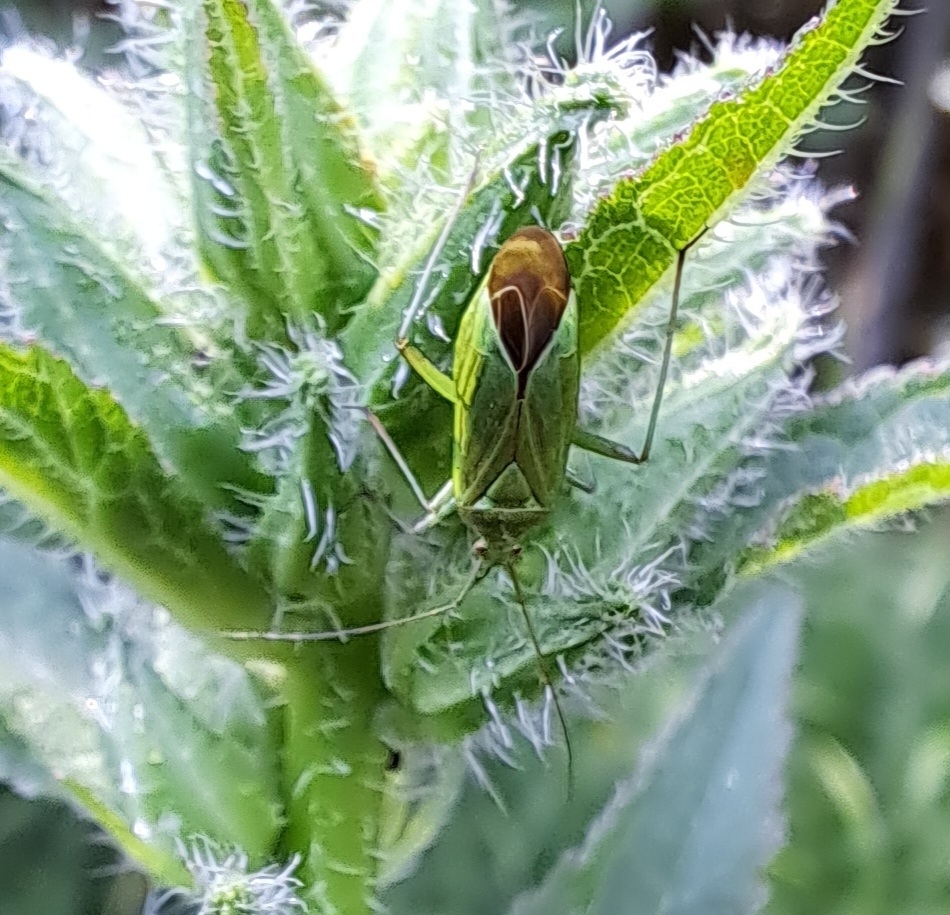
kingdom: Animalia
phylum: Arthropoda
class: Insecta
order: Hemiptera
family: Miridae
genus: Calocoris
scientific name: Calocoris affinis
